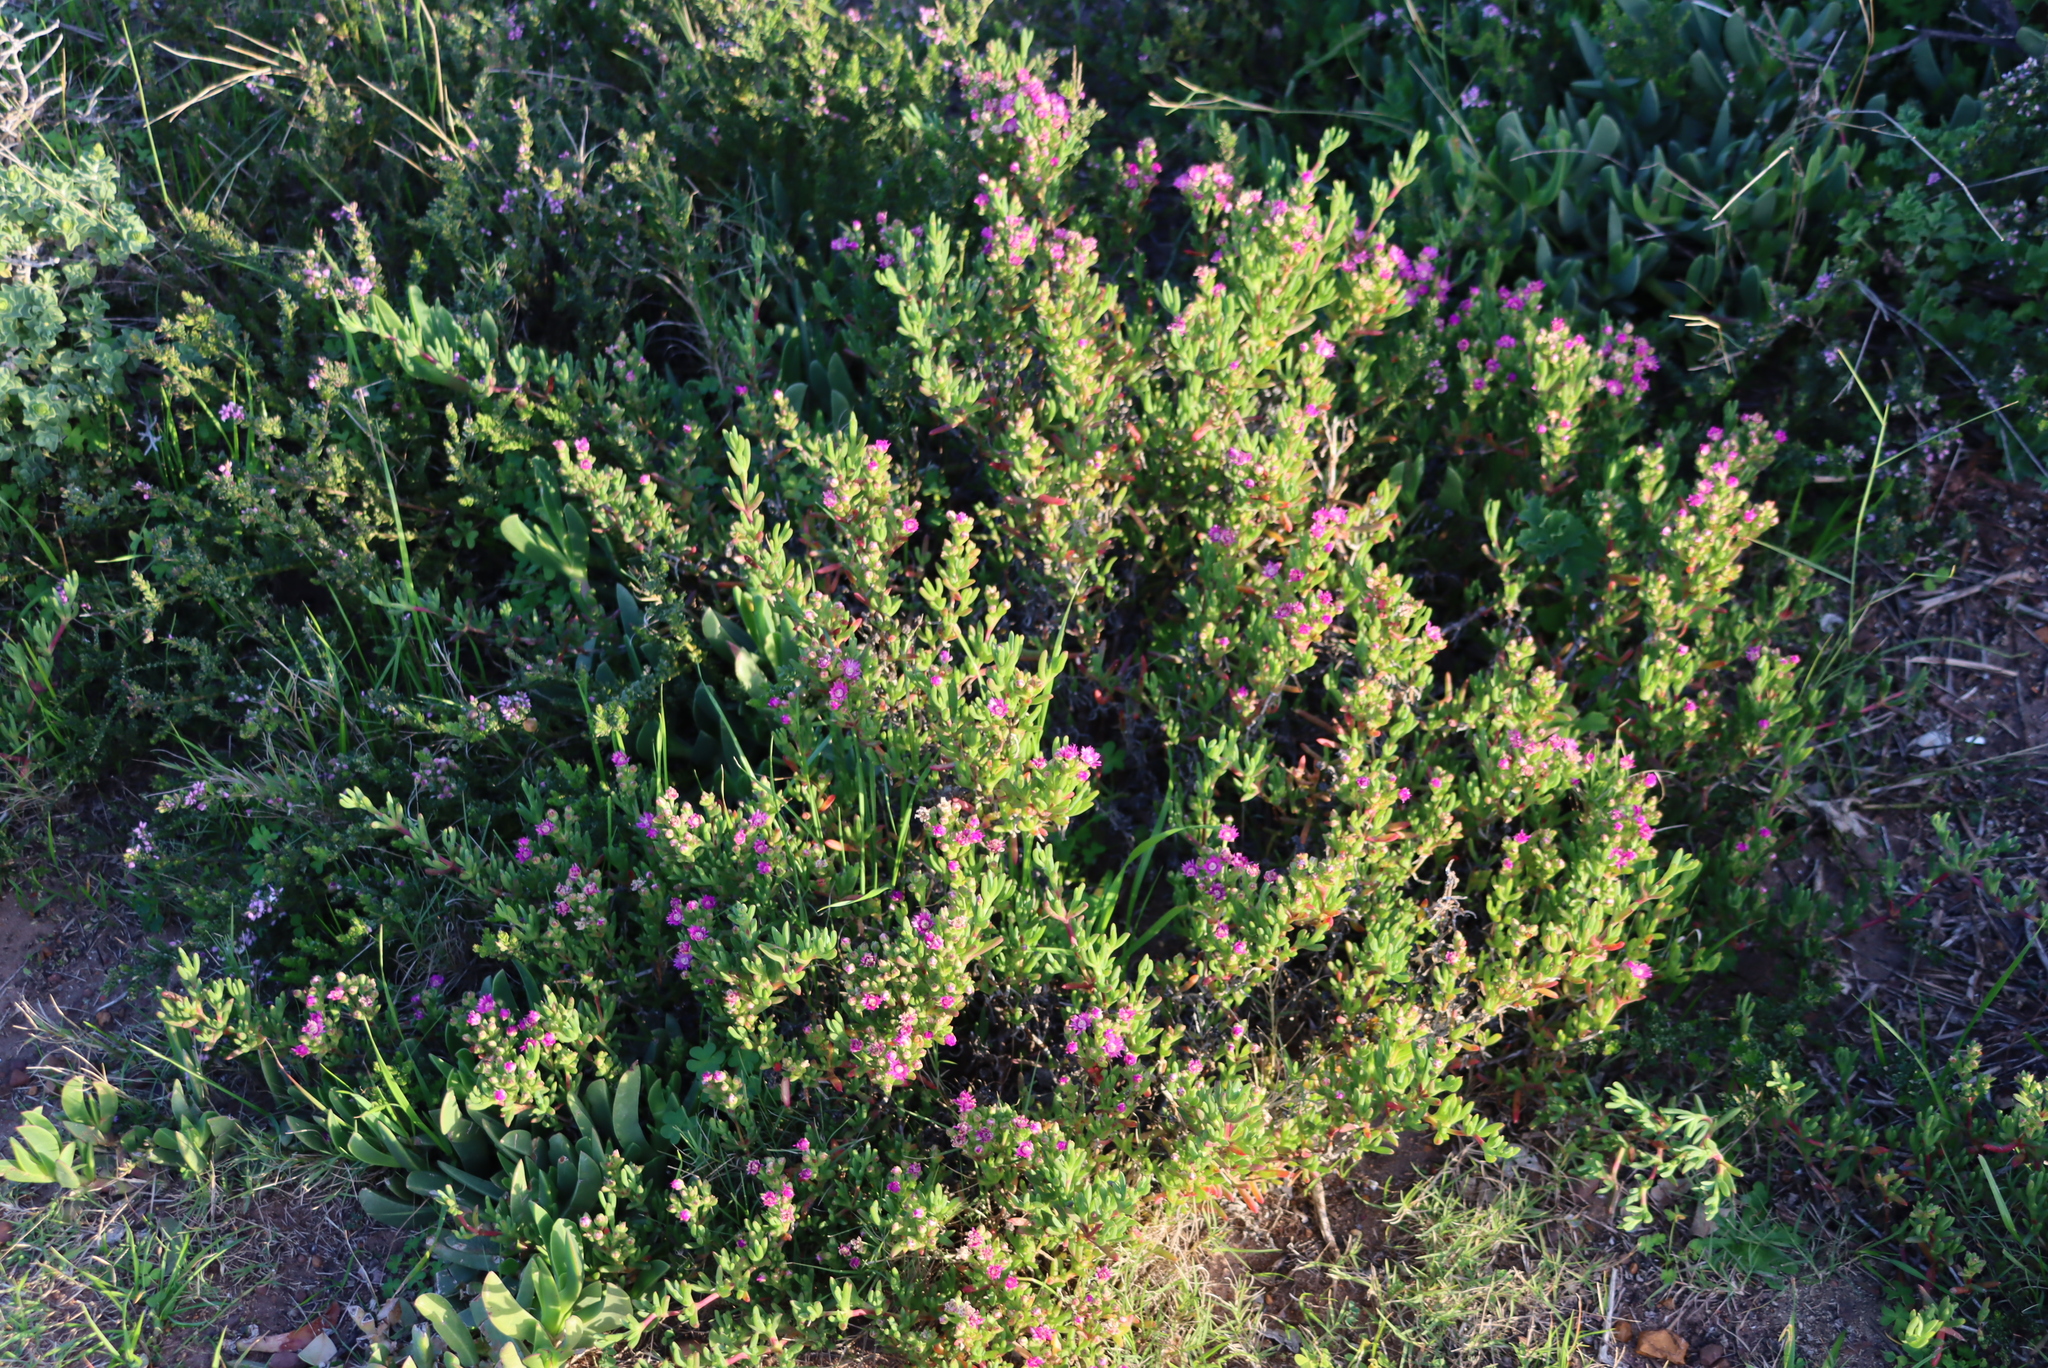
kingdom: Plantae
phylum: Tracheophyta
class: Magnoliopsida
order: Caryophyllales
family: Aizoaceae
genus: Ruschia
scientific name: Ruschia macowanii
